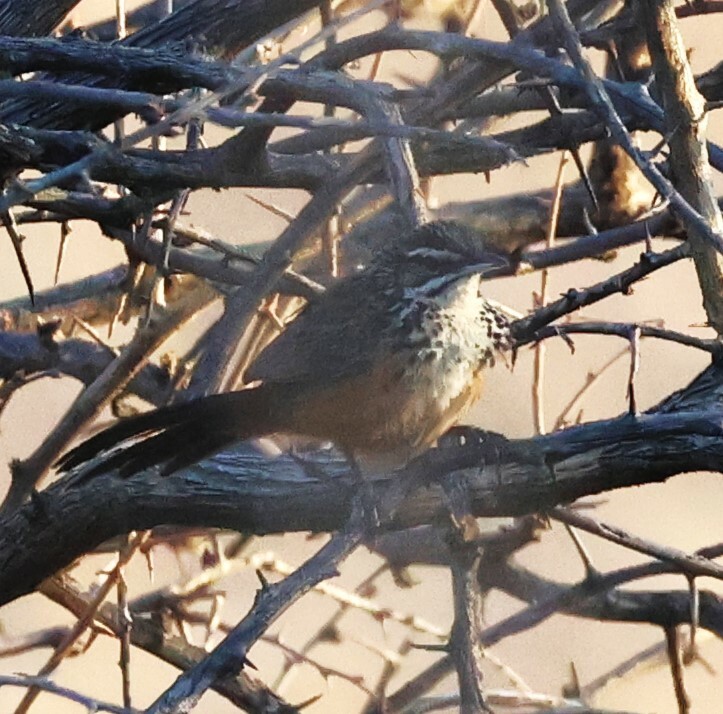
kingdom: Animalia
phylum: Chordata
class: Aves
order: Passeriformes
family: Macrosphenidae
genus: Achaetops
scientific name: Achaetops pycnopygius
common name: Rockrunner
